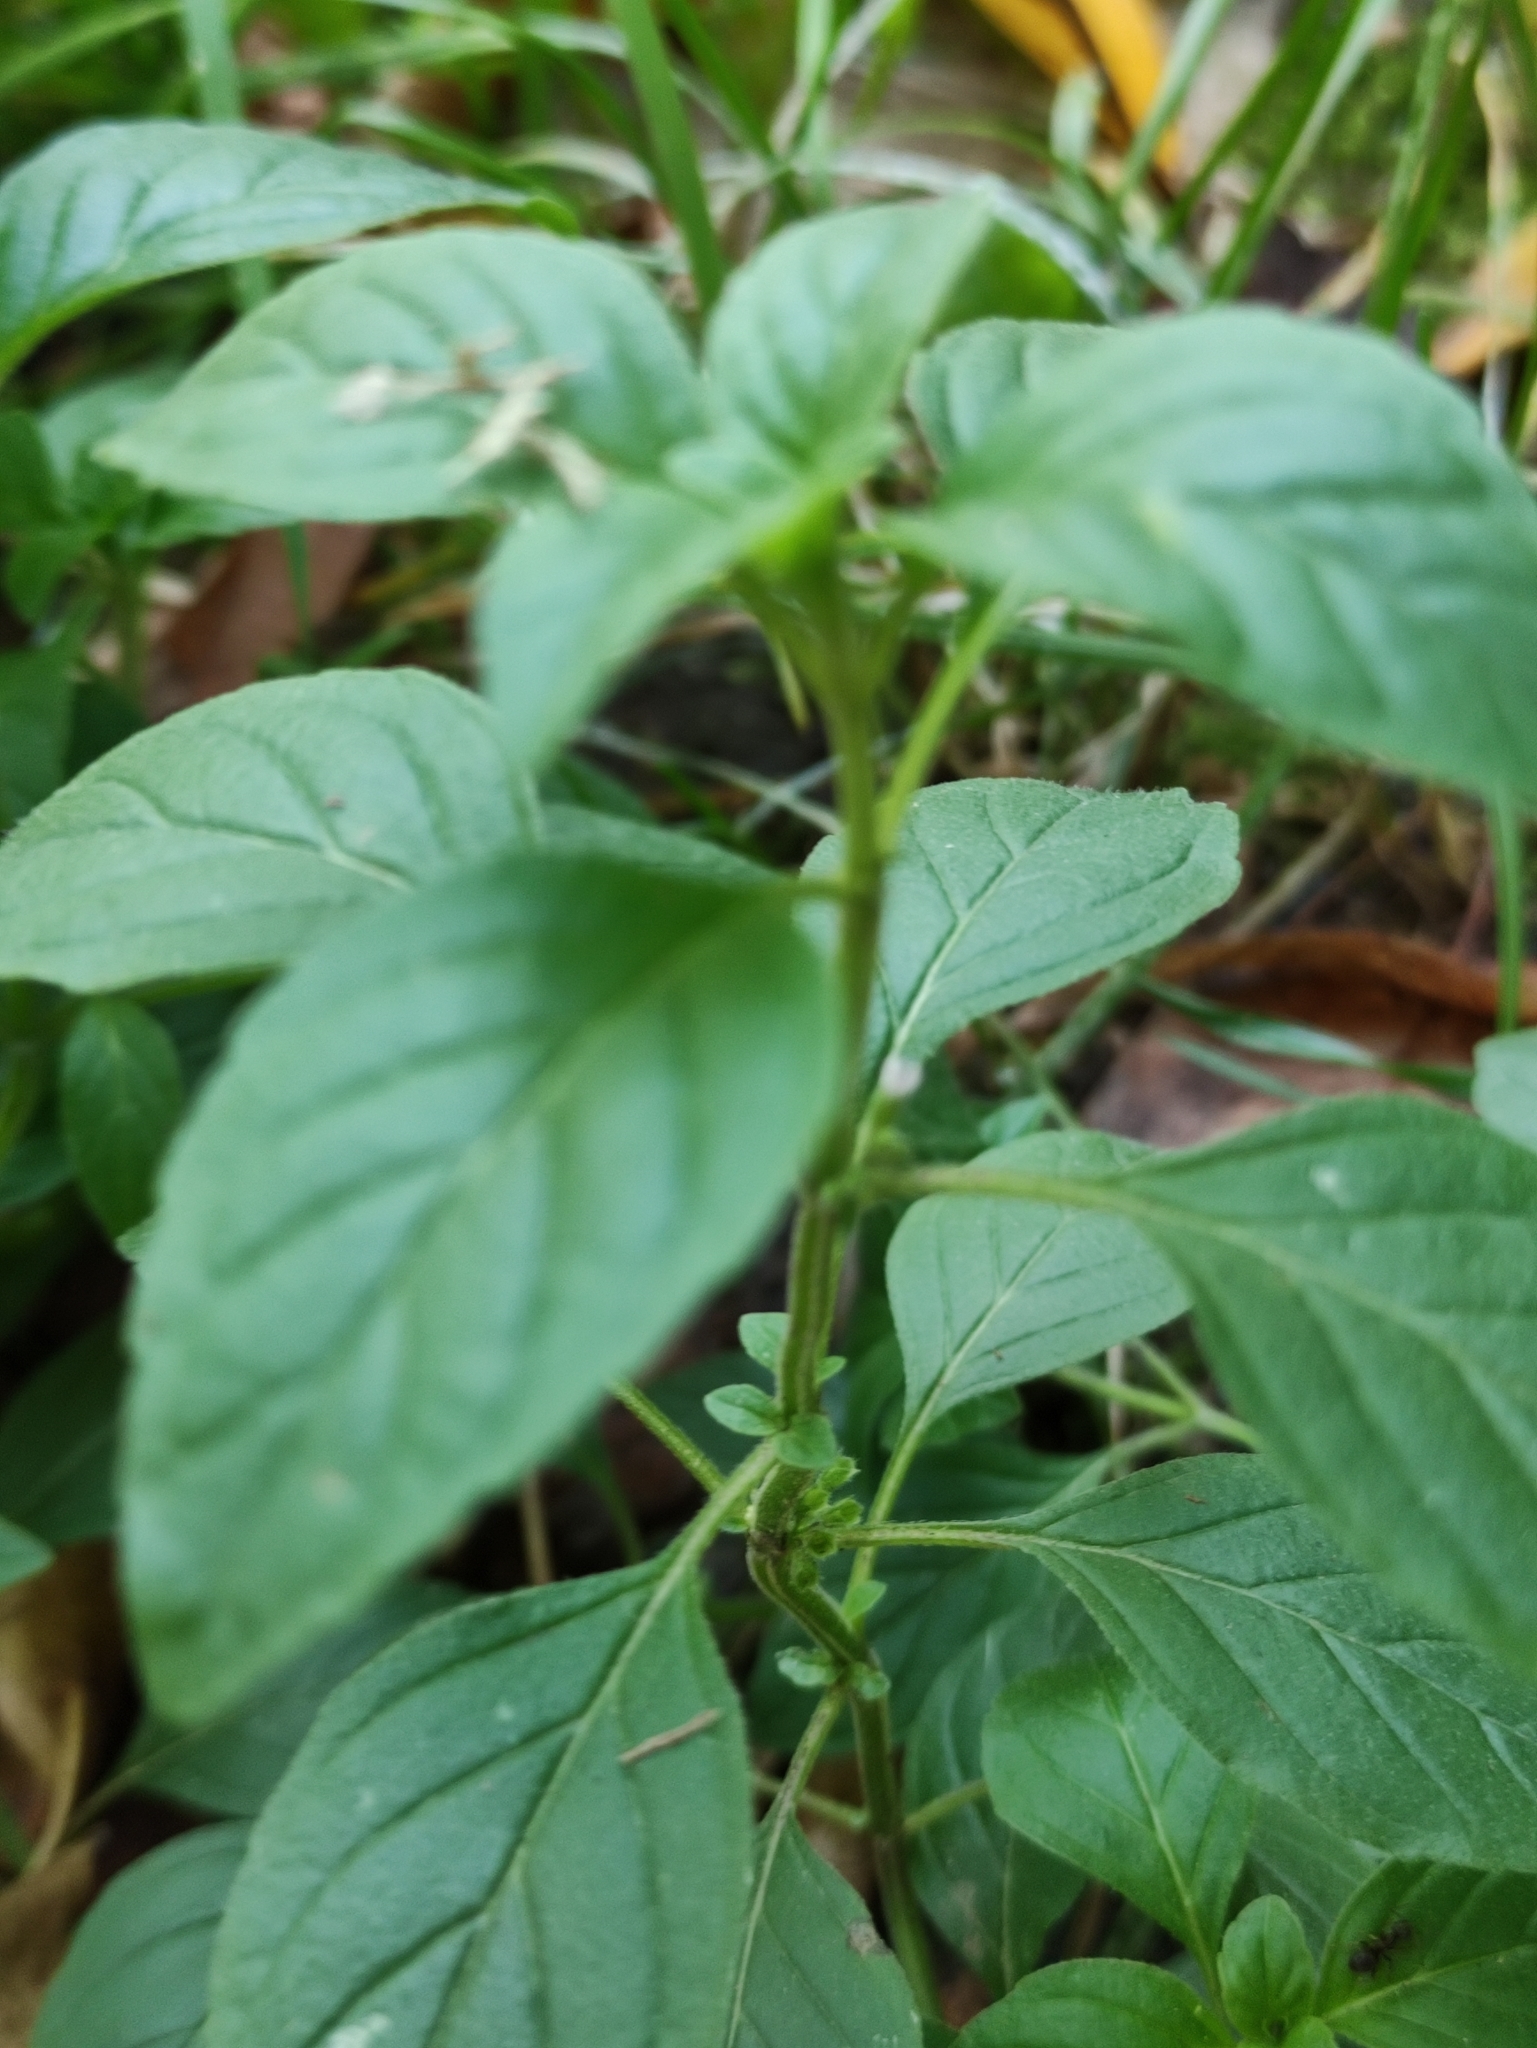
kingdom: Plantae
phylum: Tracheophyta
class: Magnoliopsida
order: Lamiales
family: Lamiaceae
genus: Mentha
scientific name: Mentha arvensis
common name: Corn mint
